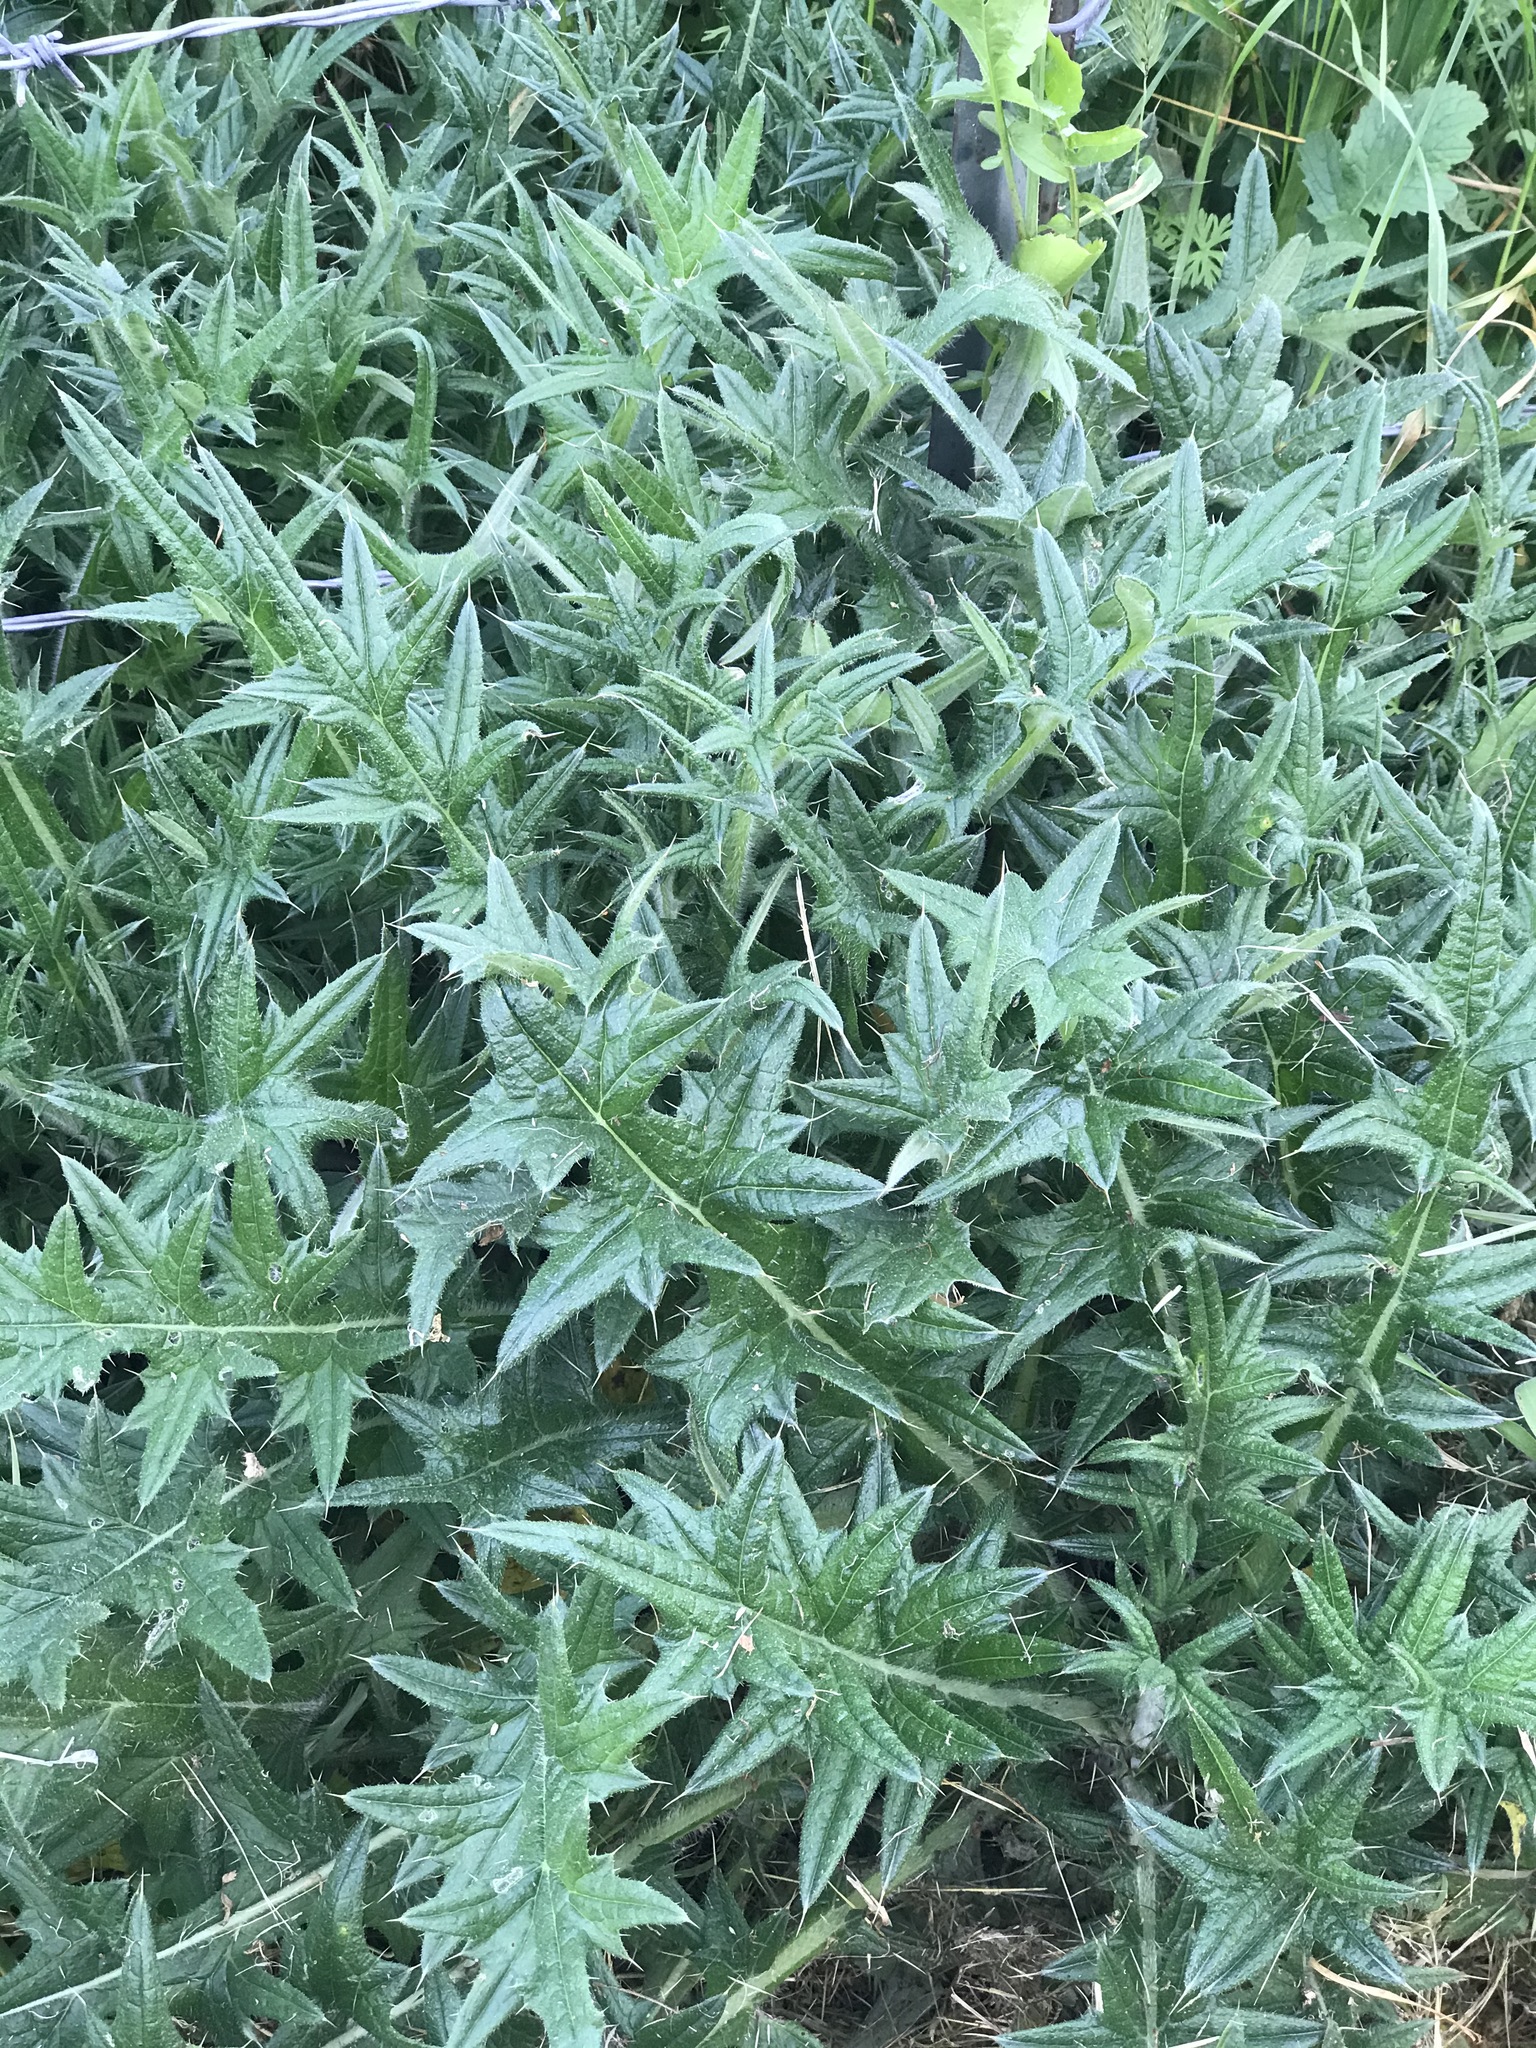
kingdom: Plantae
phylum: Tracheophyta
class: Magnoliopsida
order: Asterales
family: Asteraceae
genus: Cirsium
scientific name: Cirsium vulgare
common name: Bull thistle
